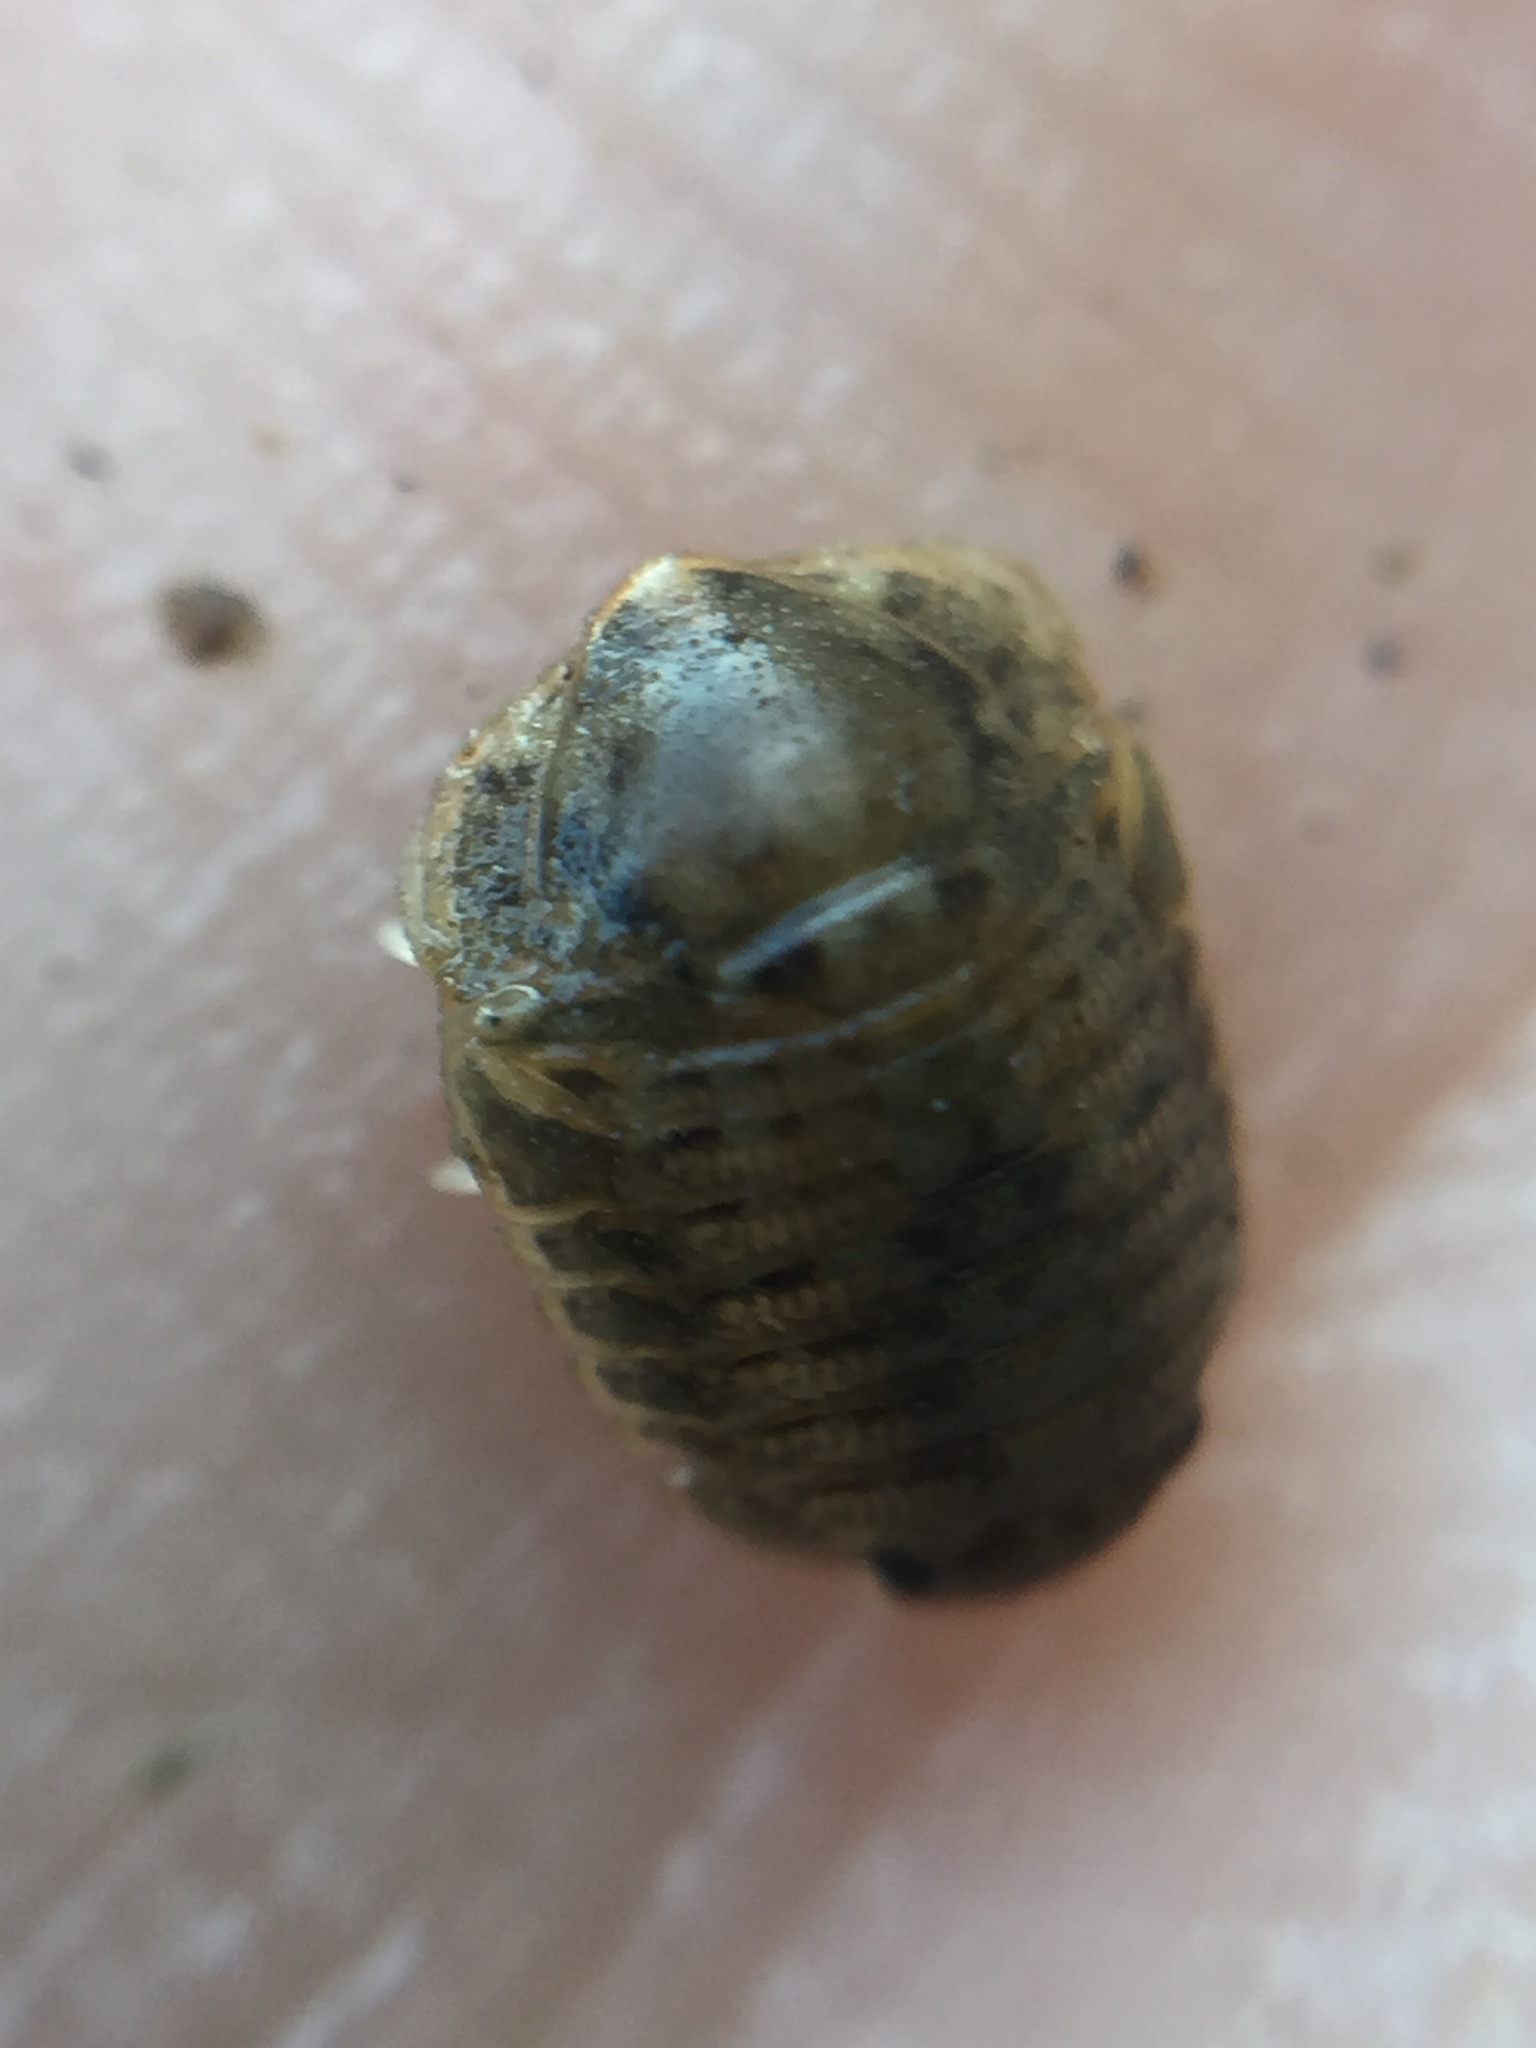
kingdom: Animalia
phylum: Arthropoda
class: Malacostraca
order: Isopoda
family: Sphaeromatidae
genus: Exosphaeroma
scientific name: Exosphaeroma planulum
